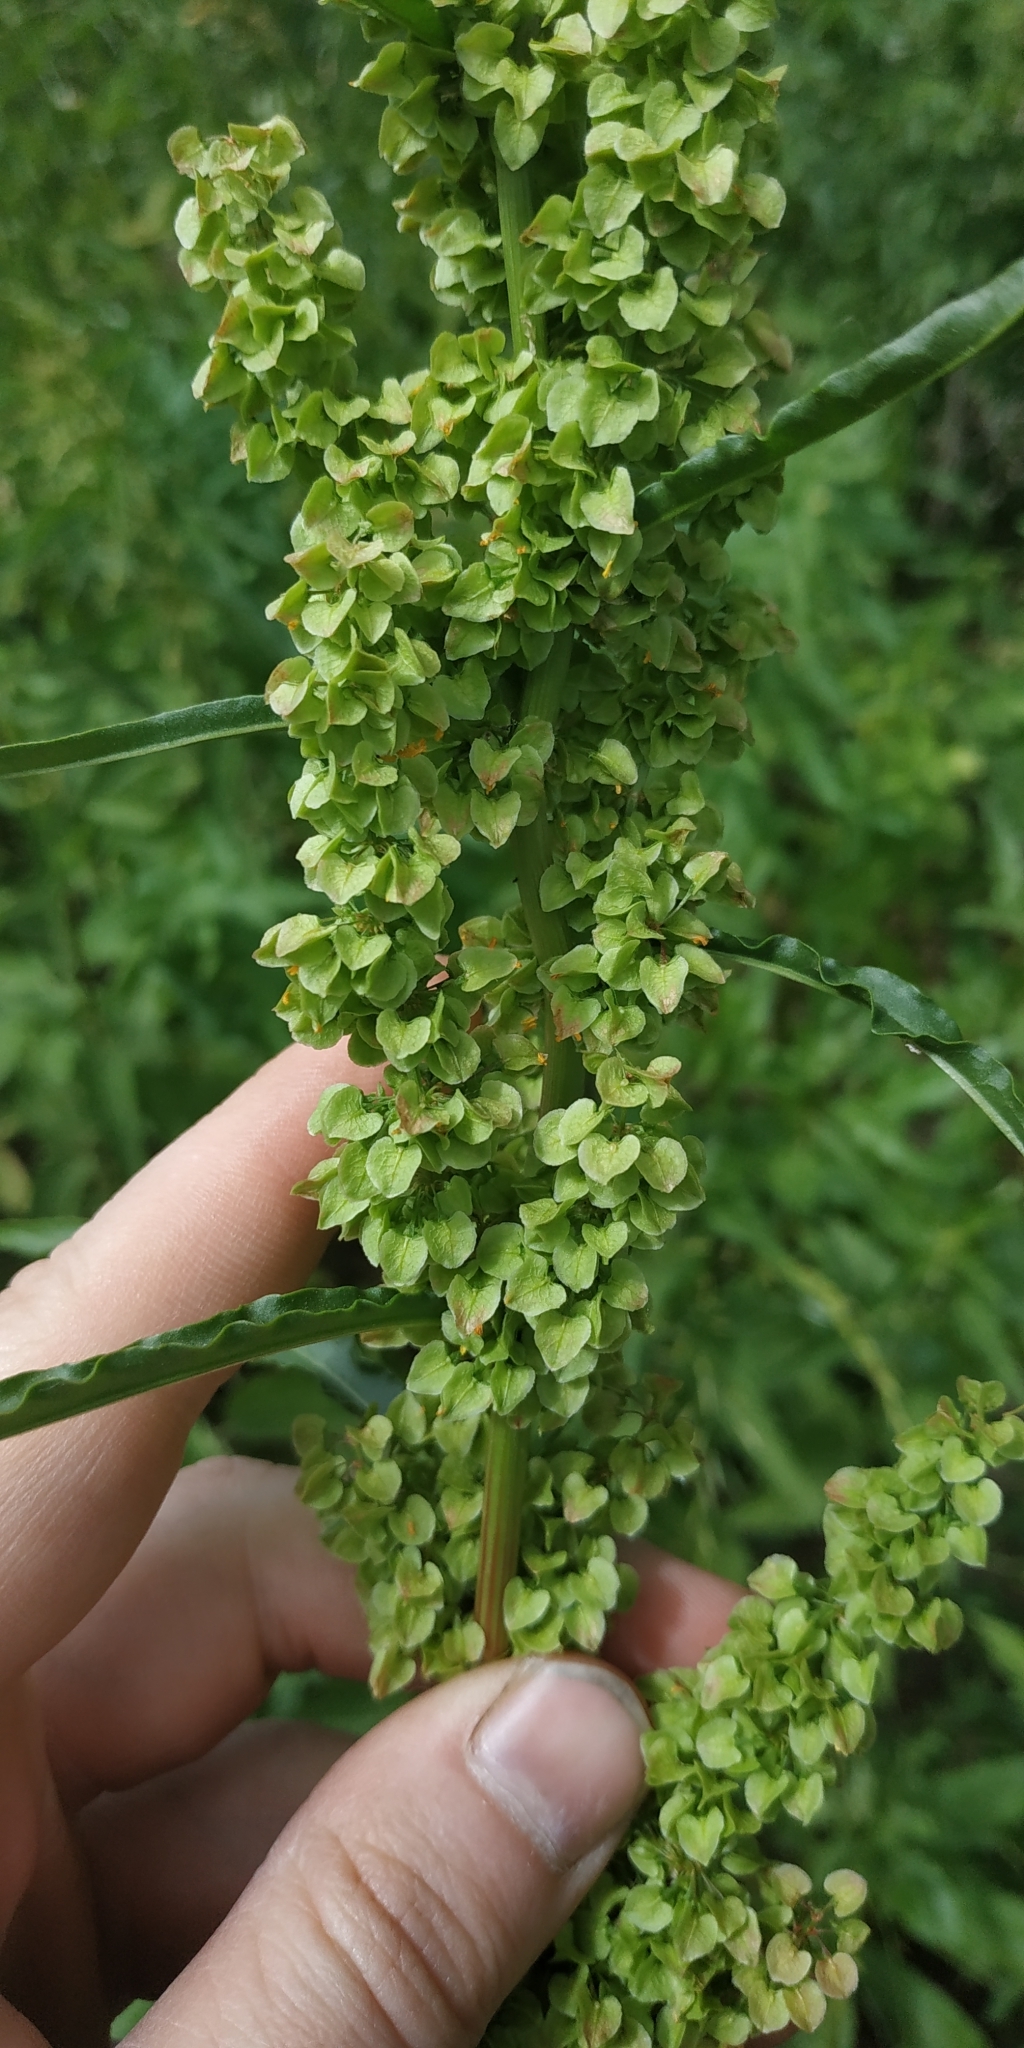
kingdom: Plantae
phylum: Tracheophyta
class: Magnoliopsida
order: Caryophyllales
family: Polygonaceae
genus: Rumex
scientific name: Rumex pseudonatronatus
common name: Field dock
